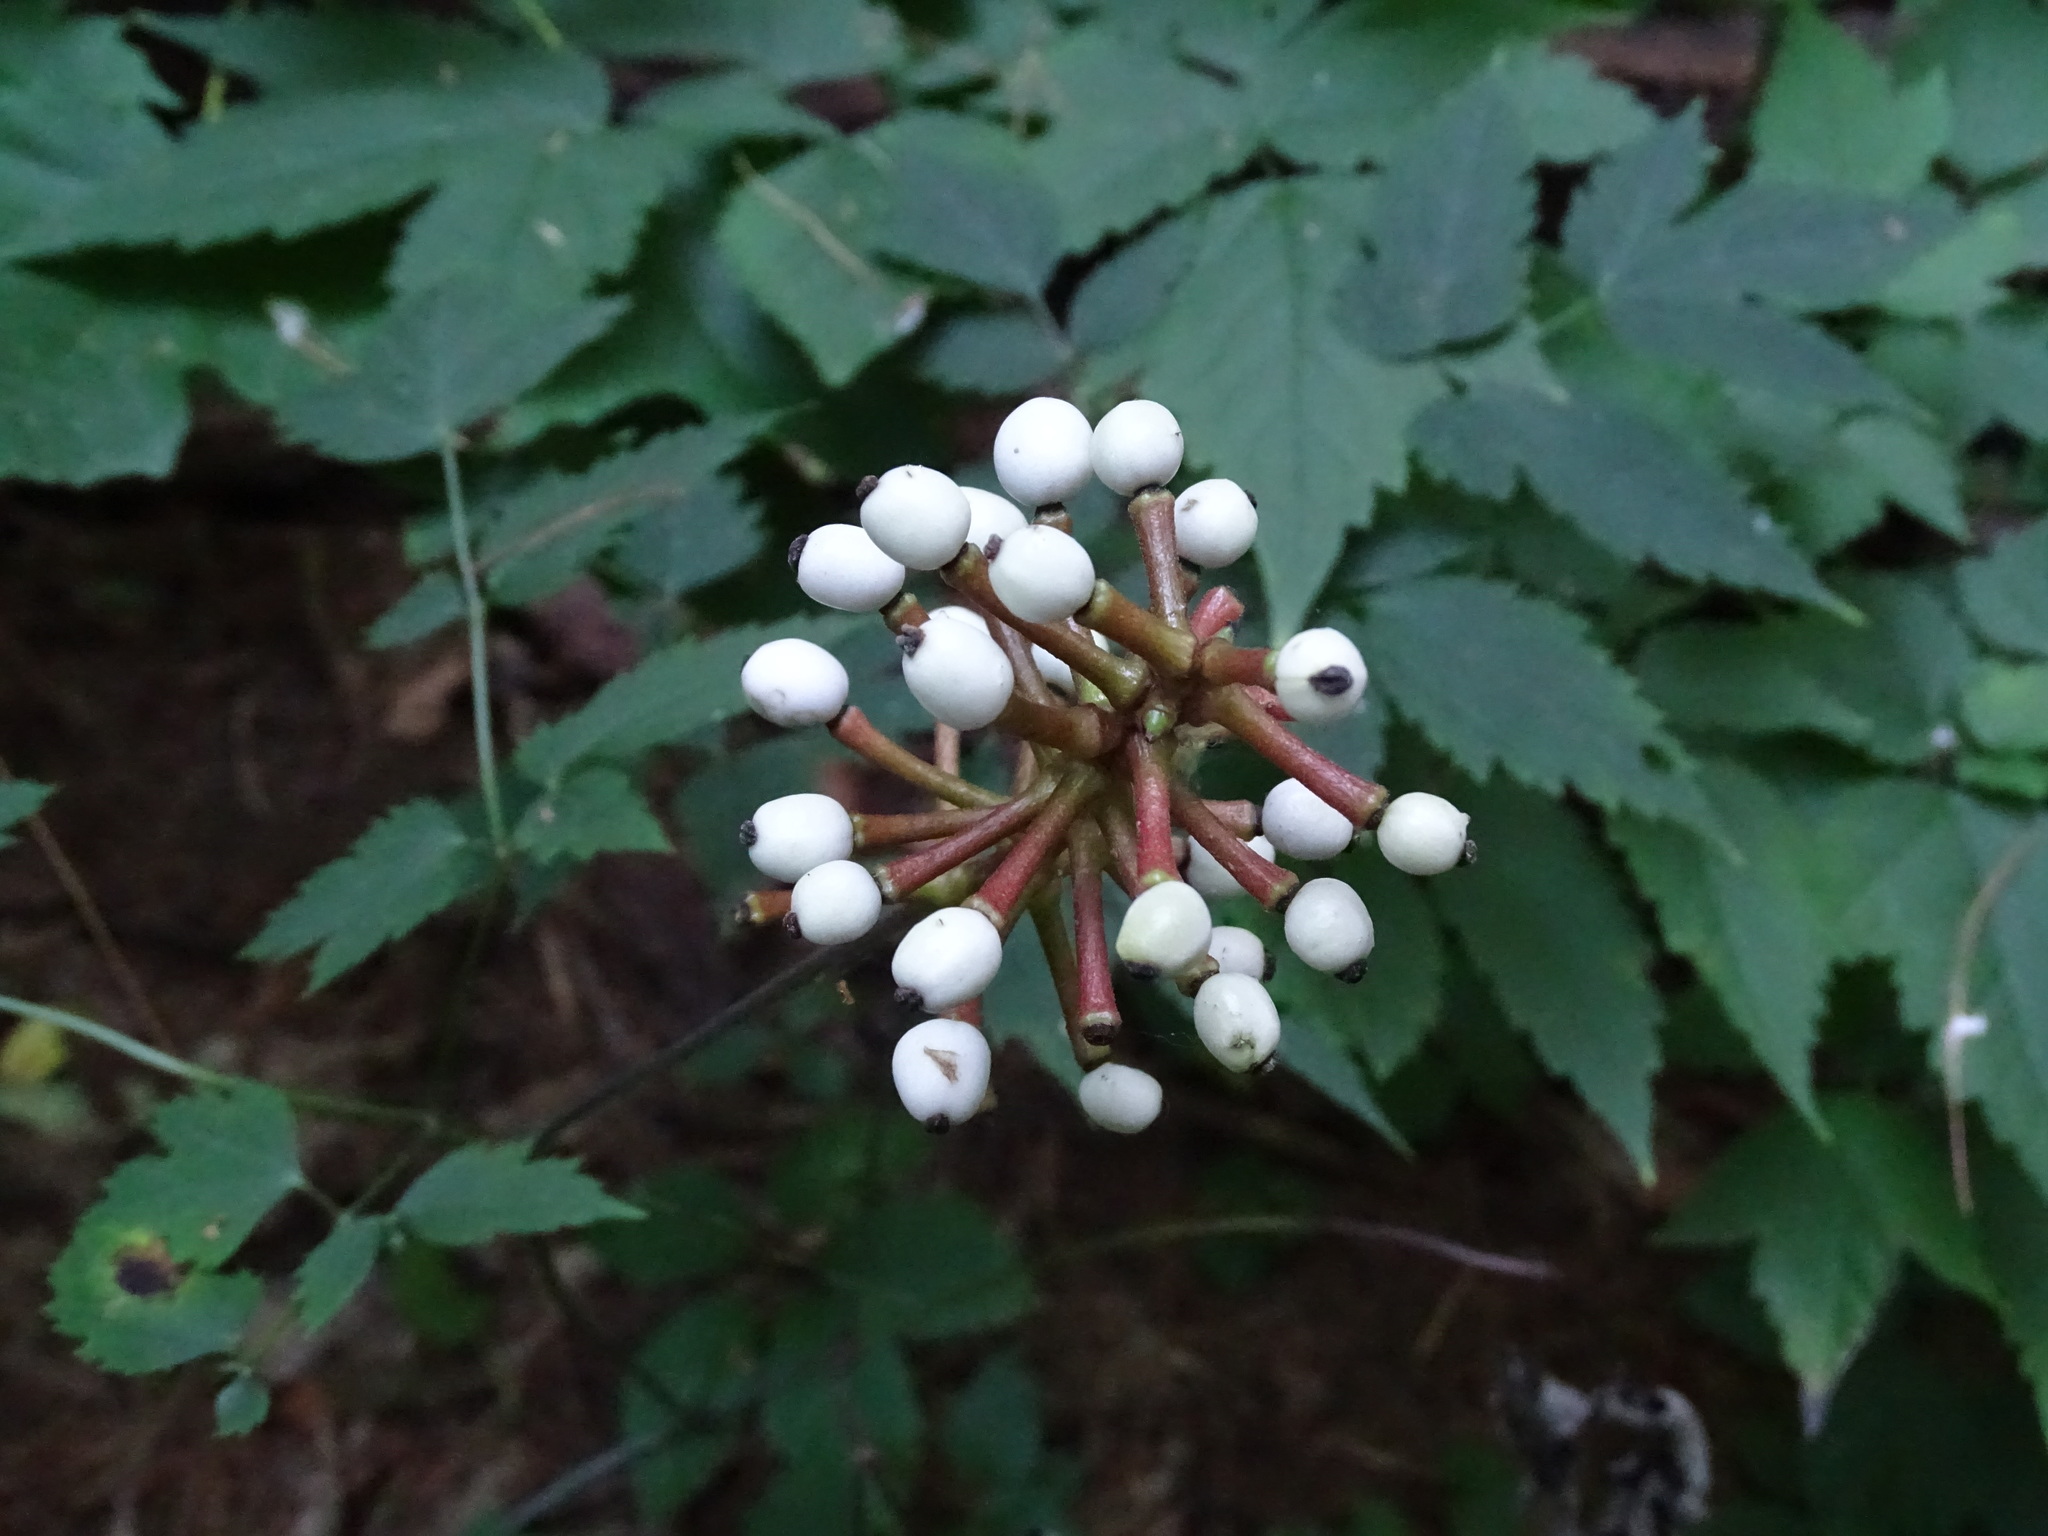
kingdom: Plantae
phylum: Tracheophyta
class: Magnoliopsida
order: Ranunculales
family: Ranunculaceae
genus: Actaea
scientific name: Actaea pachypoda
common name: Doll's-eyes
